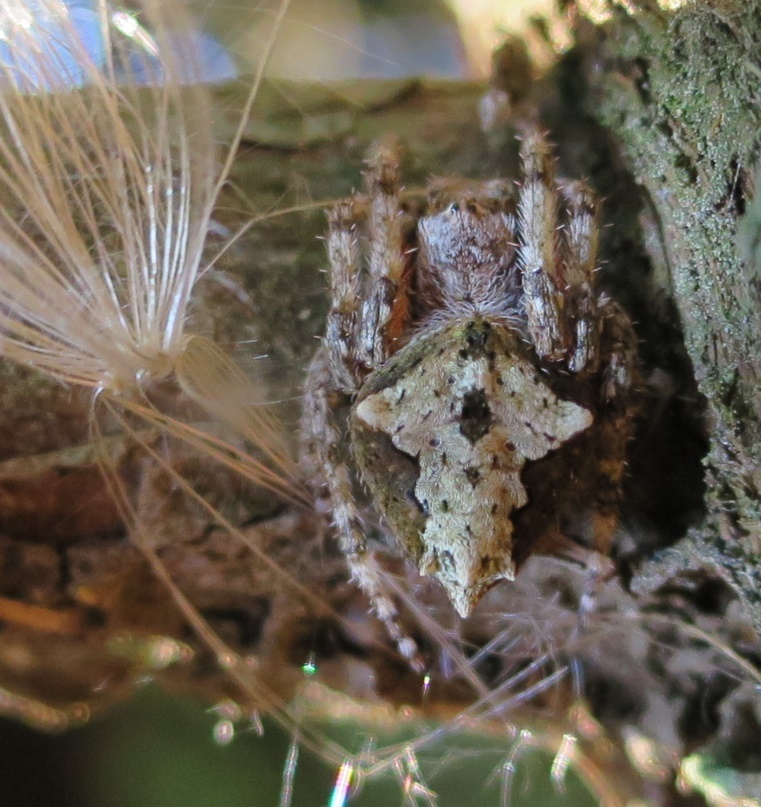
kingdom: Animalia
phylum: Arthropoda
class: Arachnida
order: Araneae
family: Araneidae
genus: Eriophora
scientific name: Eriophora pustulosa
